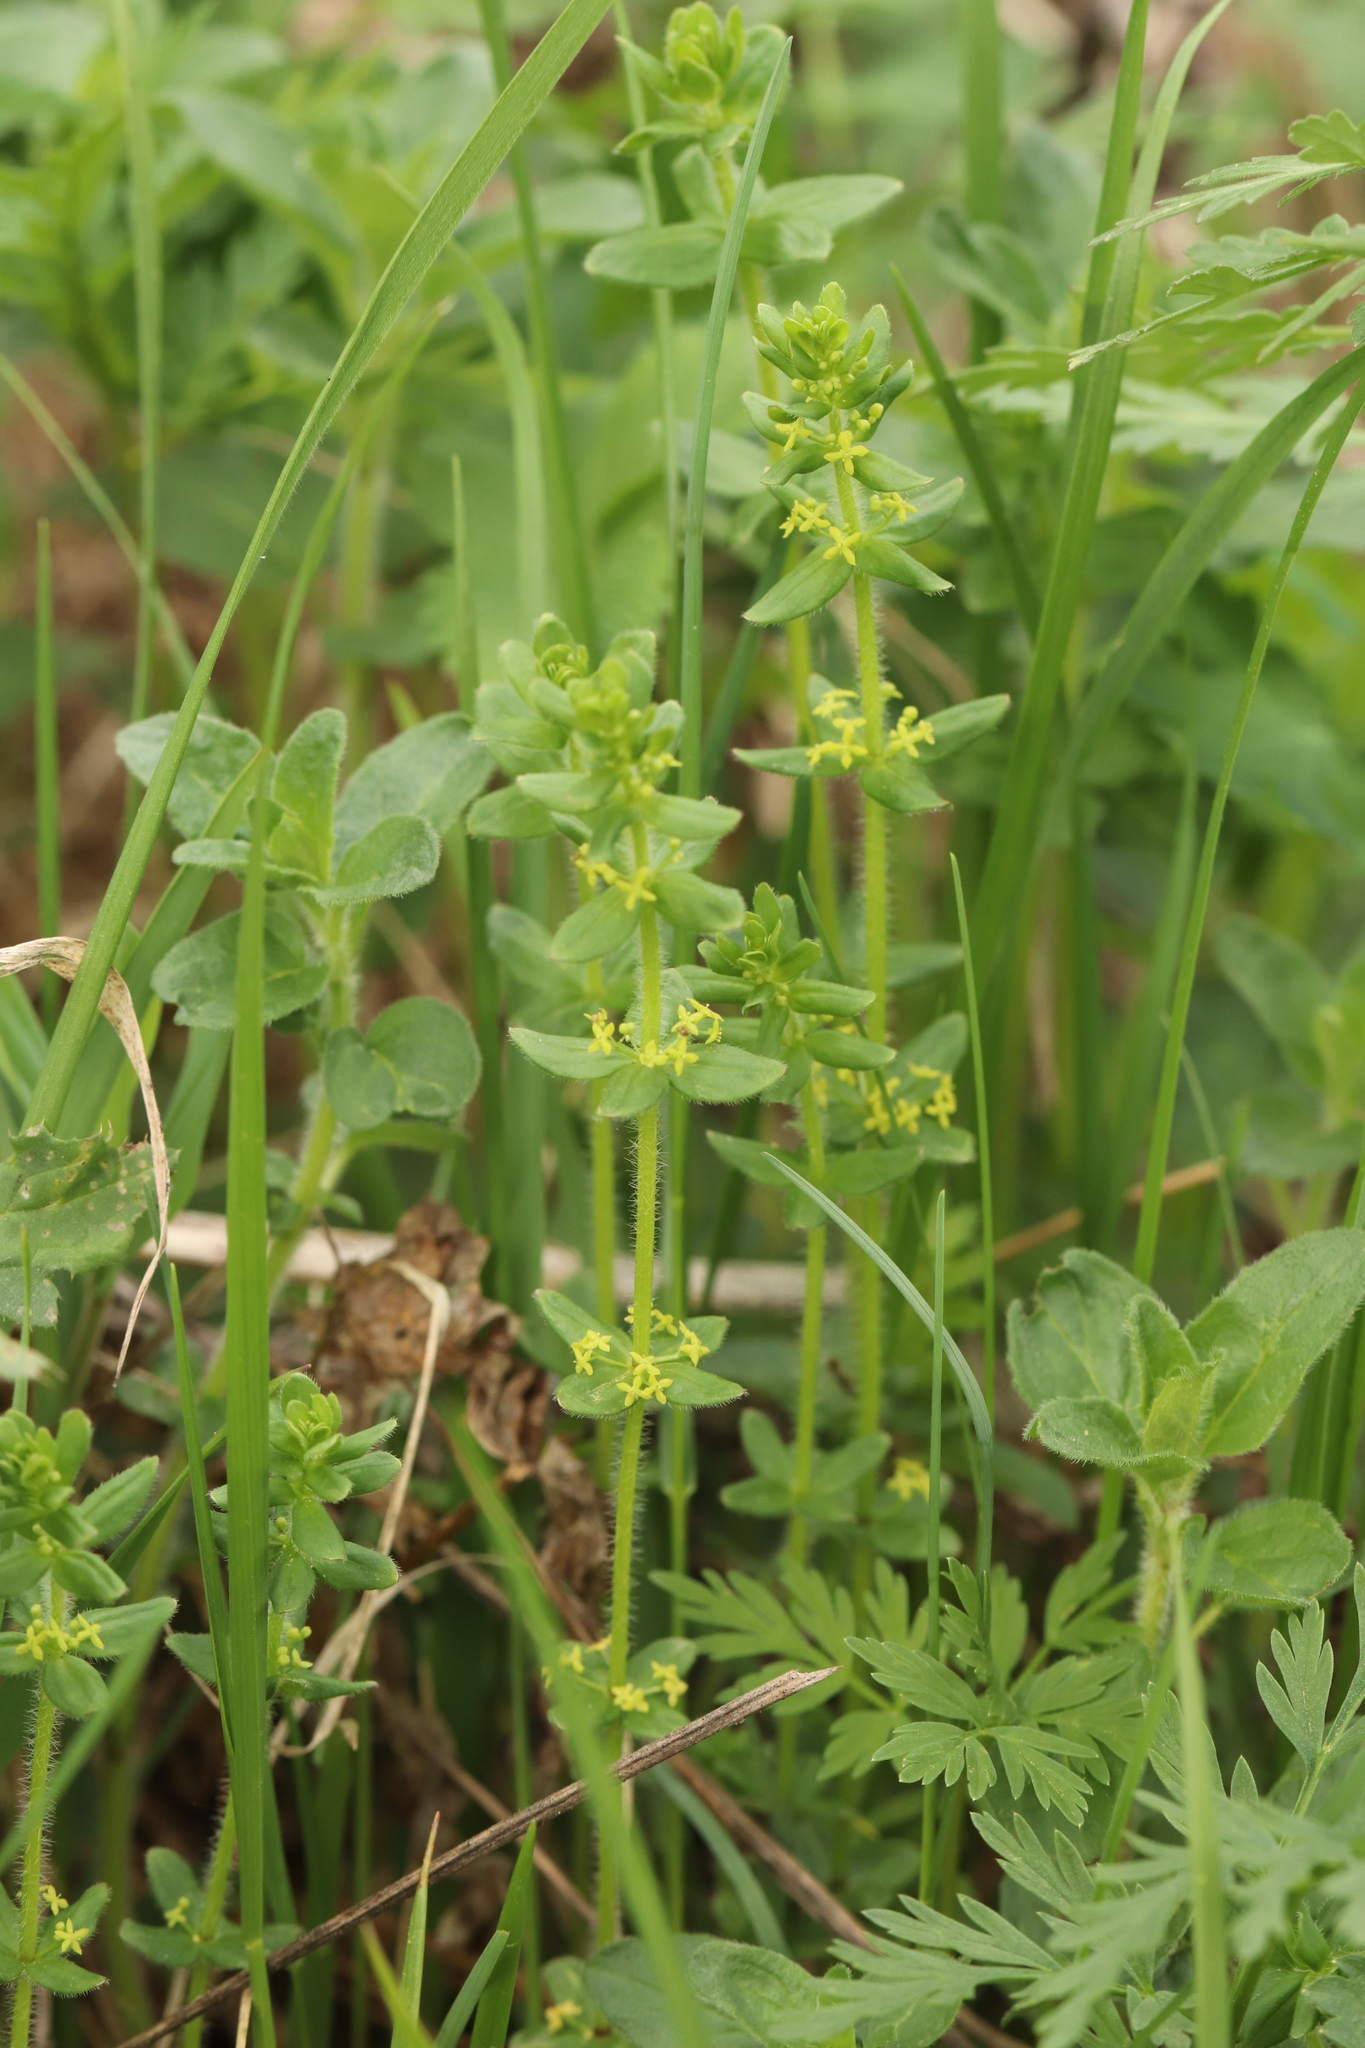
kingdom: Plantae
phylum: Tracheophyta
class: Magnoliopsida
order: Gentianales
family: Rubiaceae
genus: Cruciata
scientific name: Cruciata glabra
